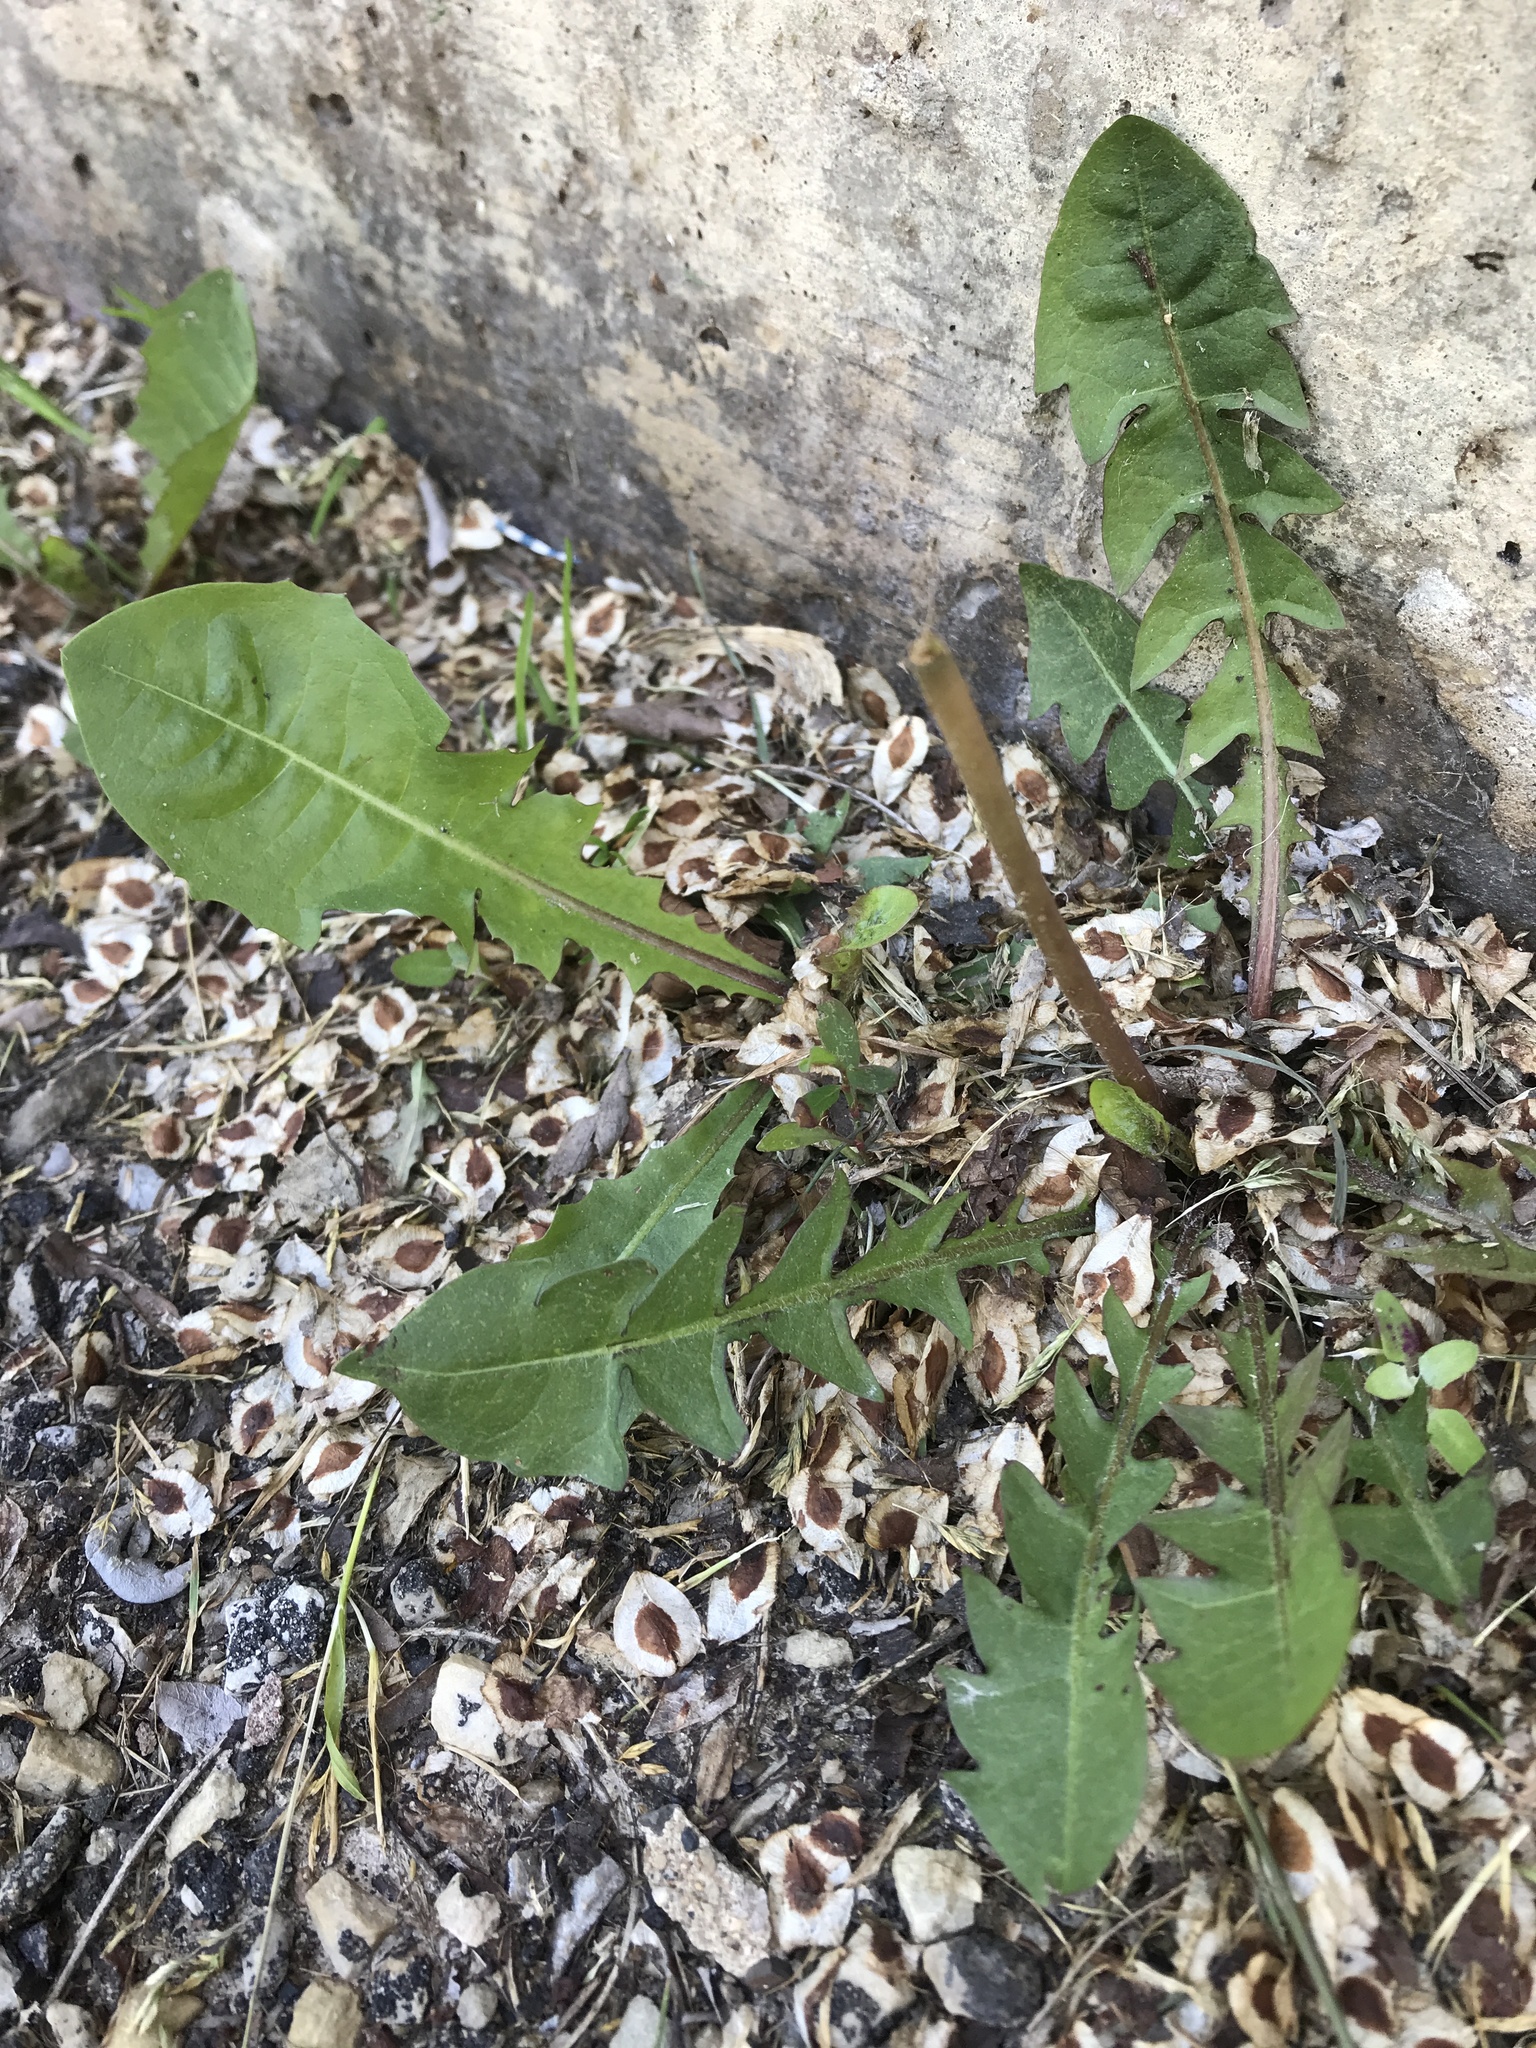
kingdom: Plantae
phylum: Tracheophyta
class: Magnoliopsida
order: Asterales
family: Asteraceae
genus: Taraxacum
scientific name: Taraxacum officinale
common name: Common dandelion
